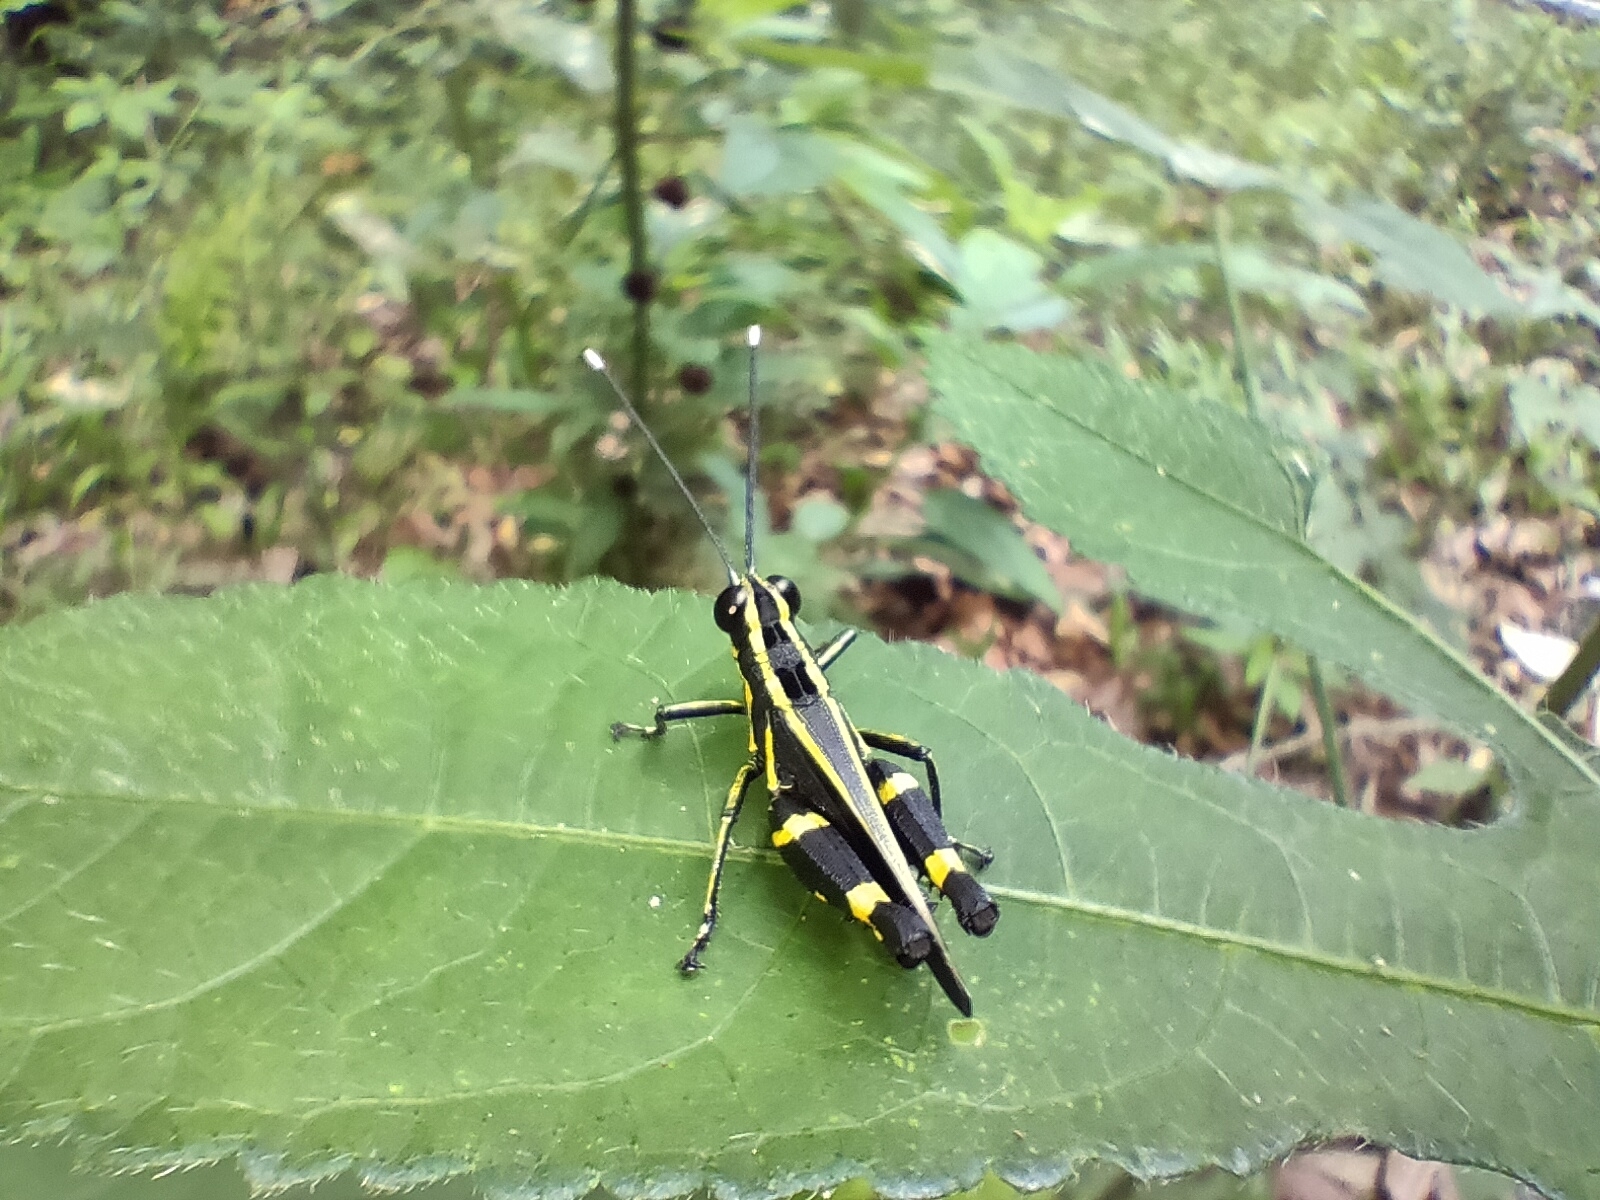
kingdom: Animalia
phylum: Arthropoda
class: Insecta
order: Orthoptera
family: Acrididae
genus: Traulia
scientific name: Traulia azureipennis
